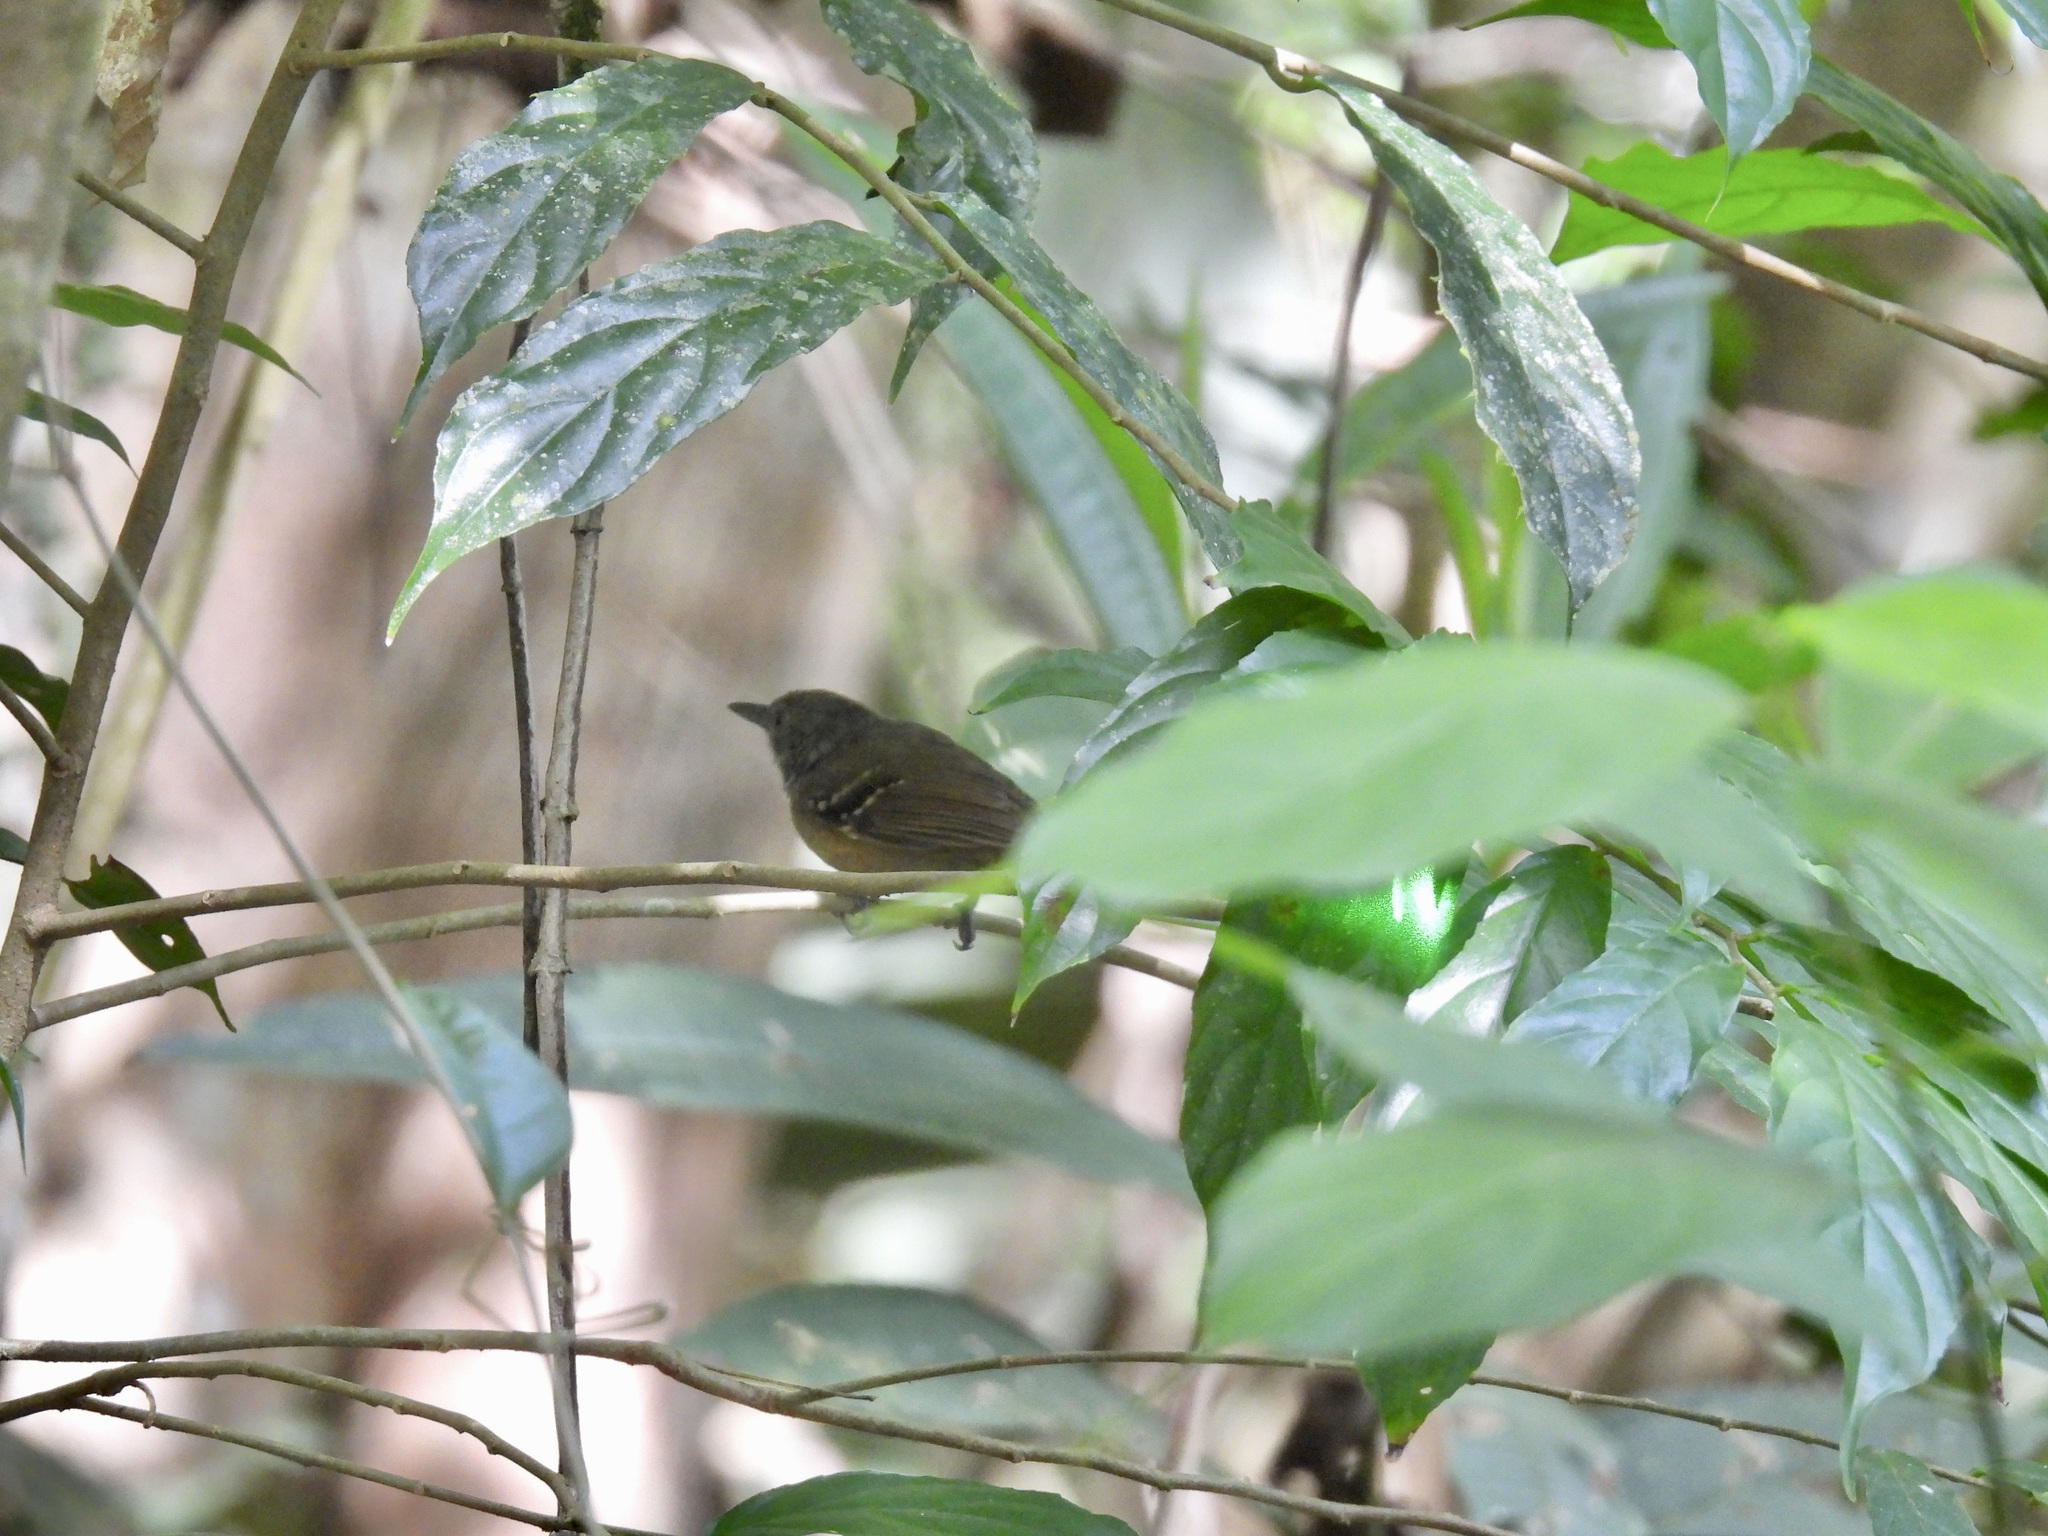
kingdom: Animalia
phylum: Chordata
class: Aves
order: Passeriformes
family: Thamnophilidae
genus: Epinecrophylla
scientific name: Epinecrophylla fulviventris
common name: Checker-throated antwren
